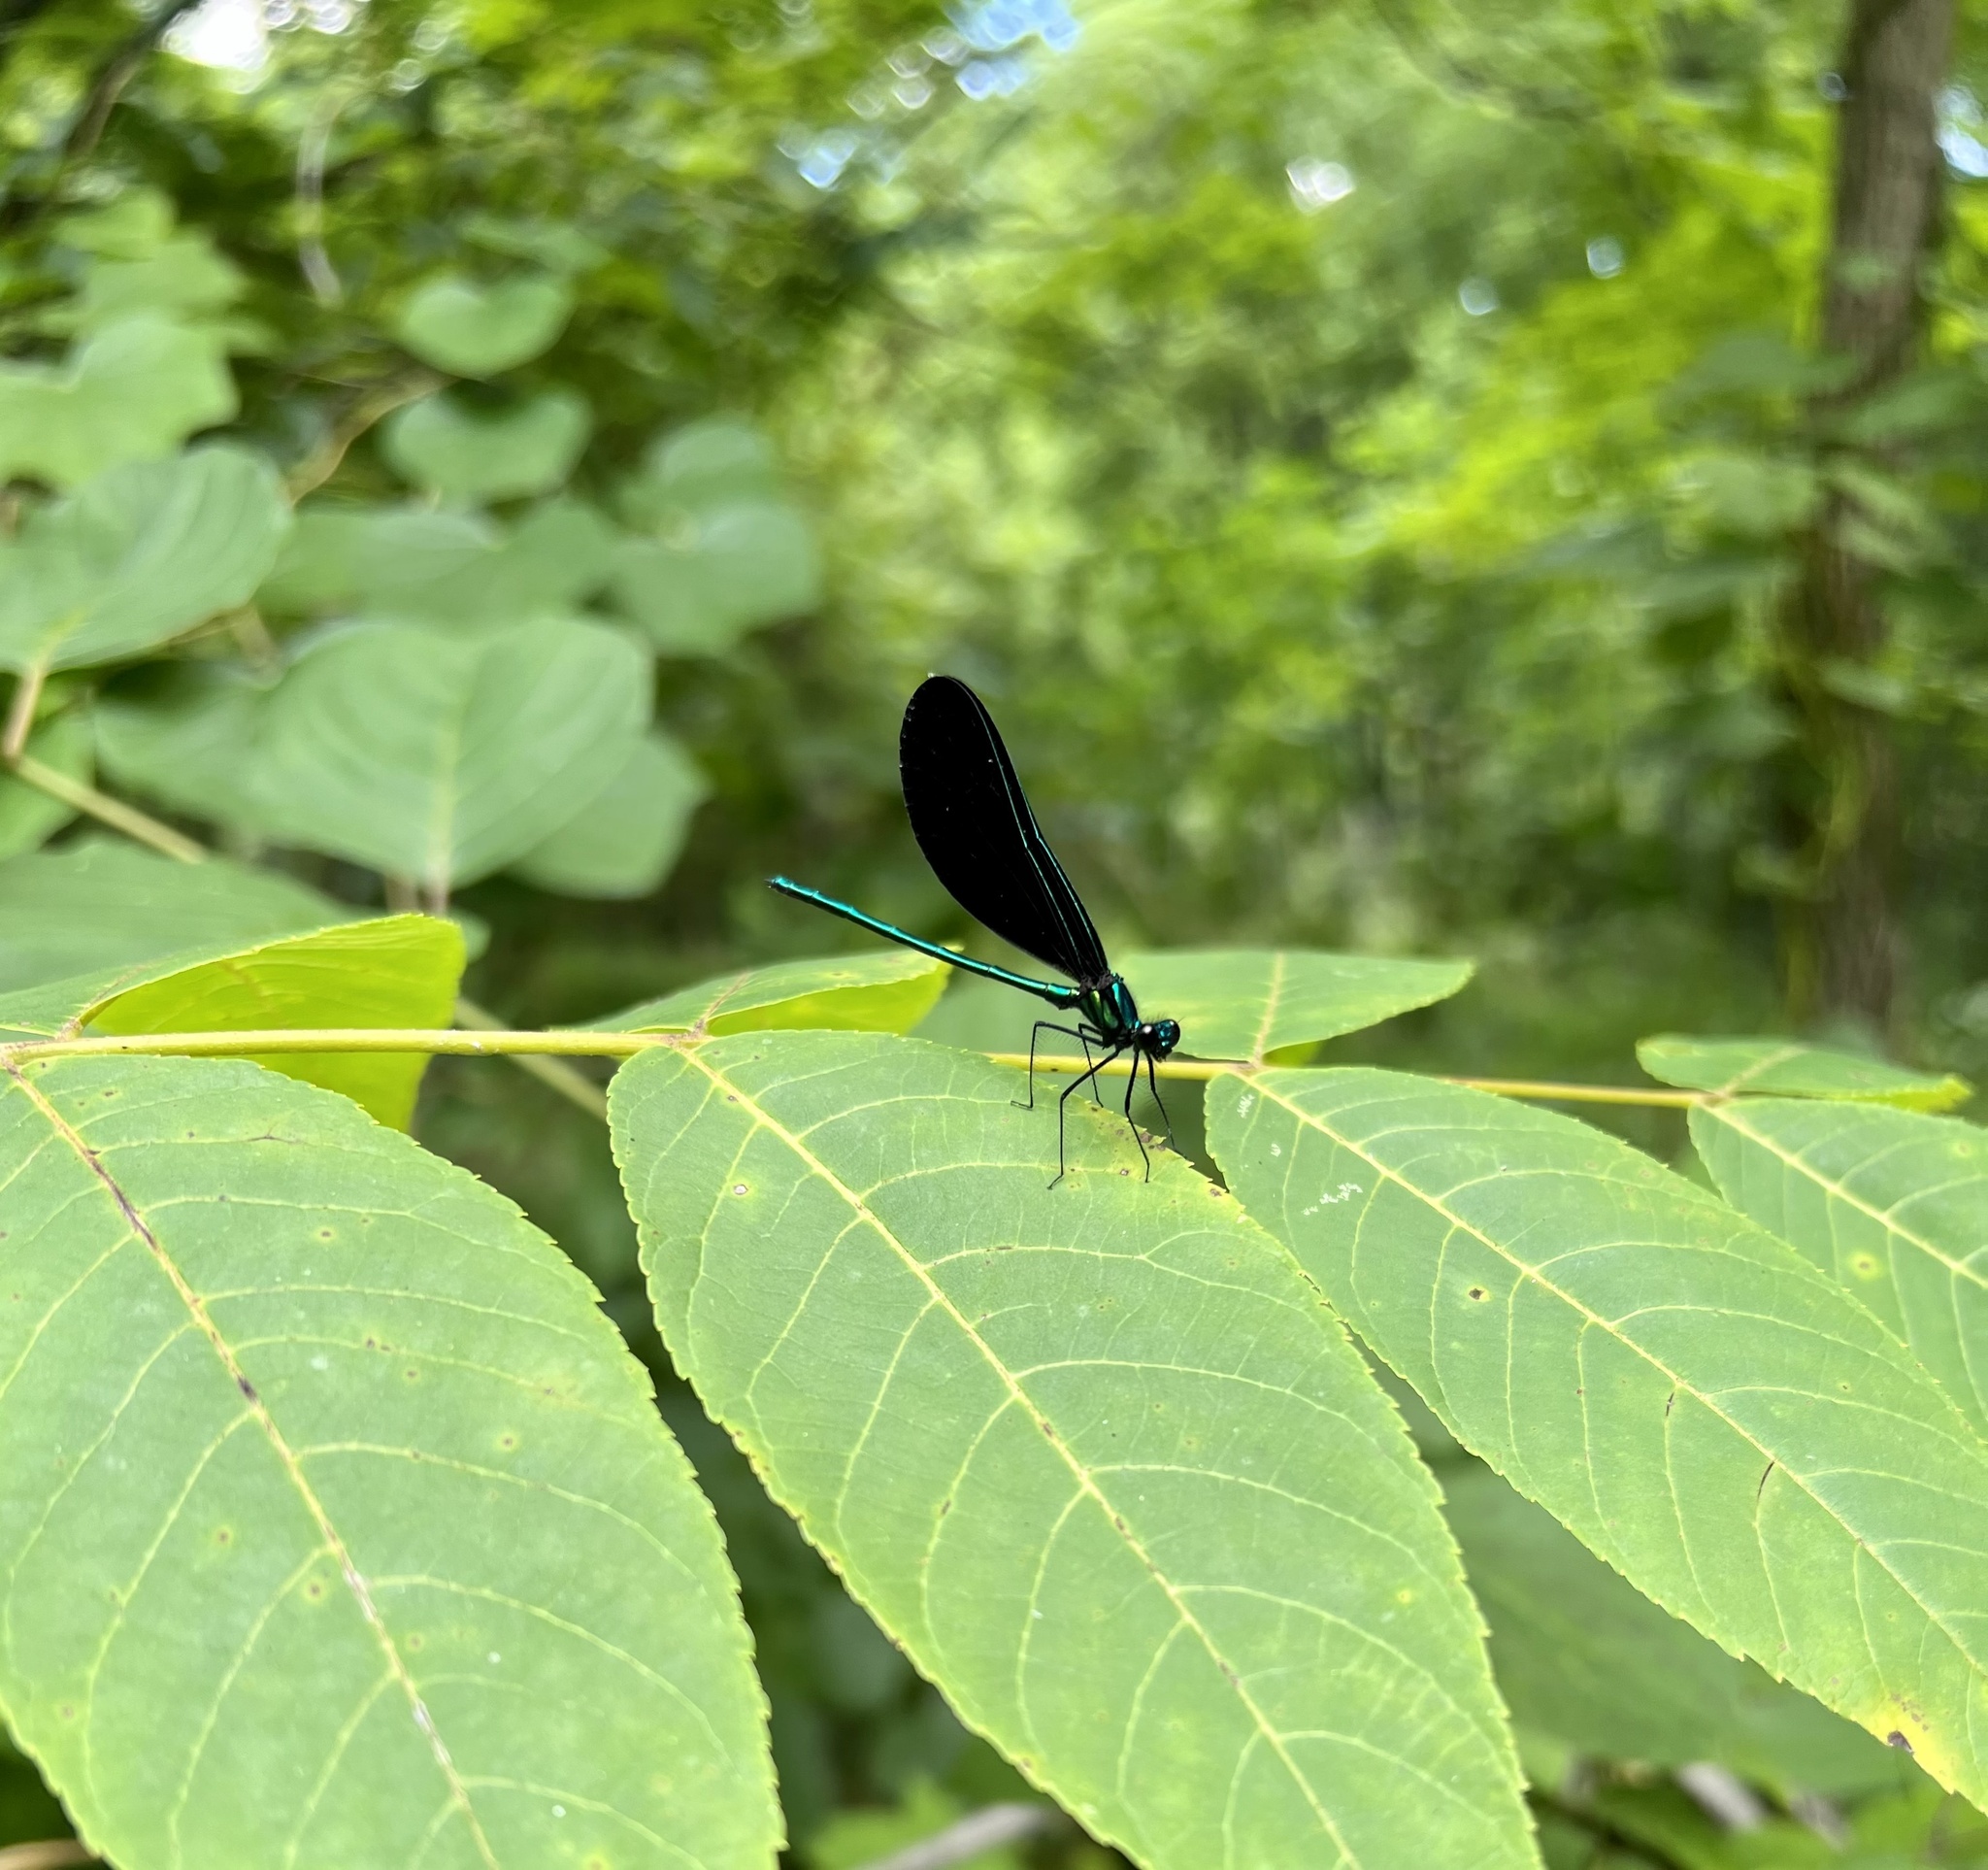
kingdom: Animalia
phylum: Arthropoda
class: Insecta
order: Odonata
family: Calopterygidae
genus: Calopteryx
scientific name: Calopteryx maculata
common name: Ebony jewelwing
